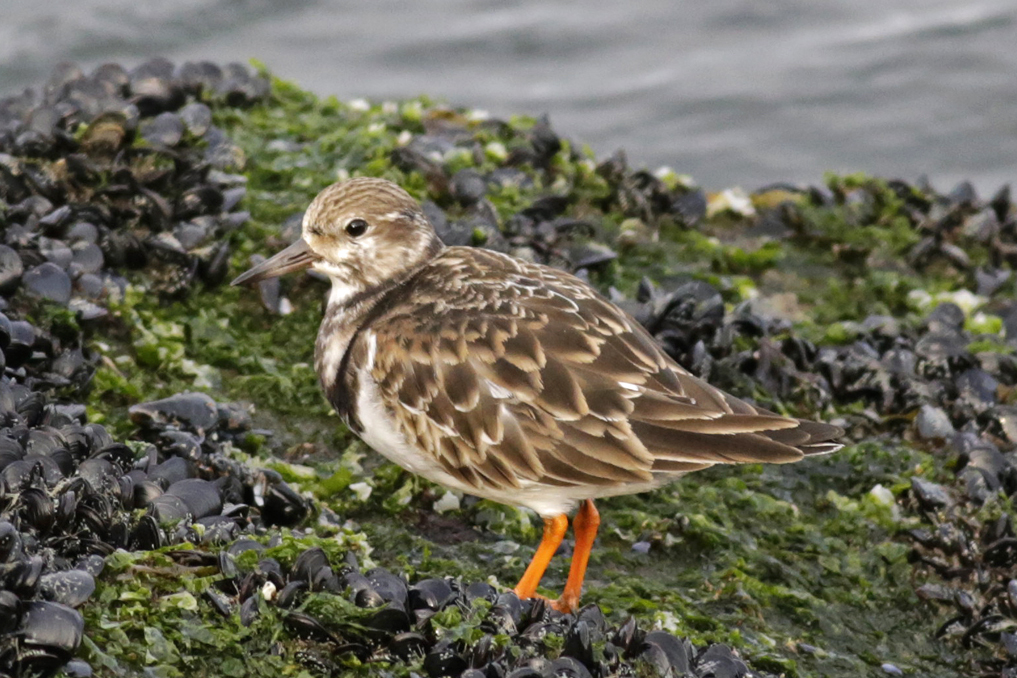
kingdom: Animalia
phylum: Chordata
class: Aves
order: Charadriiformes
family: Scolopacidae
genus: Arenaria
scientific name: Arenaria interpres
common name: Ruddy turnstone
